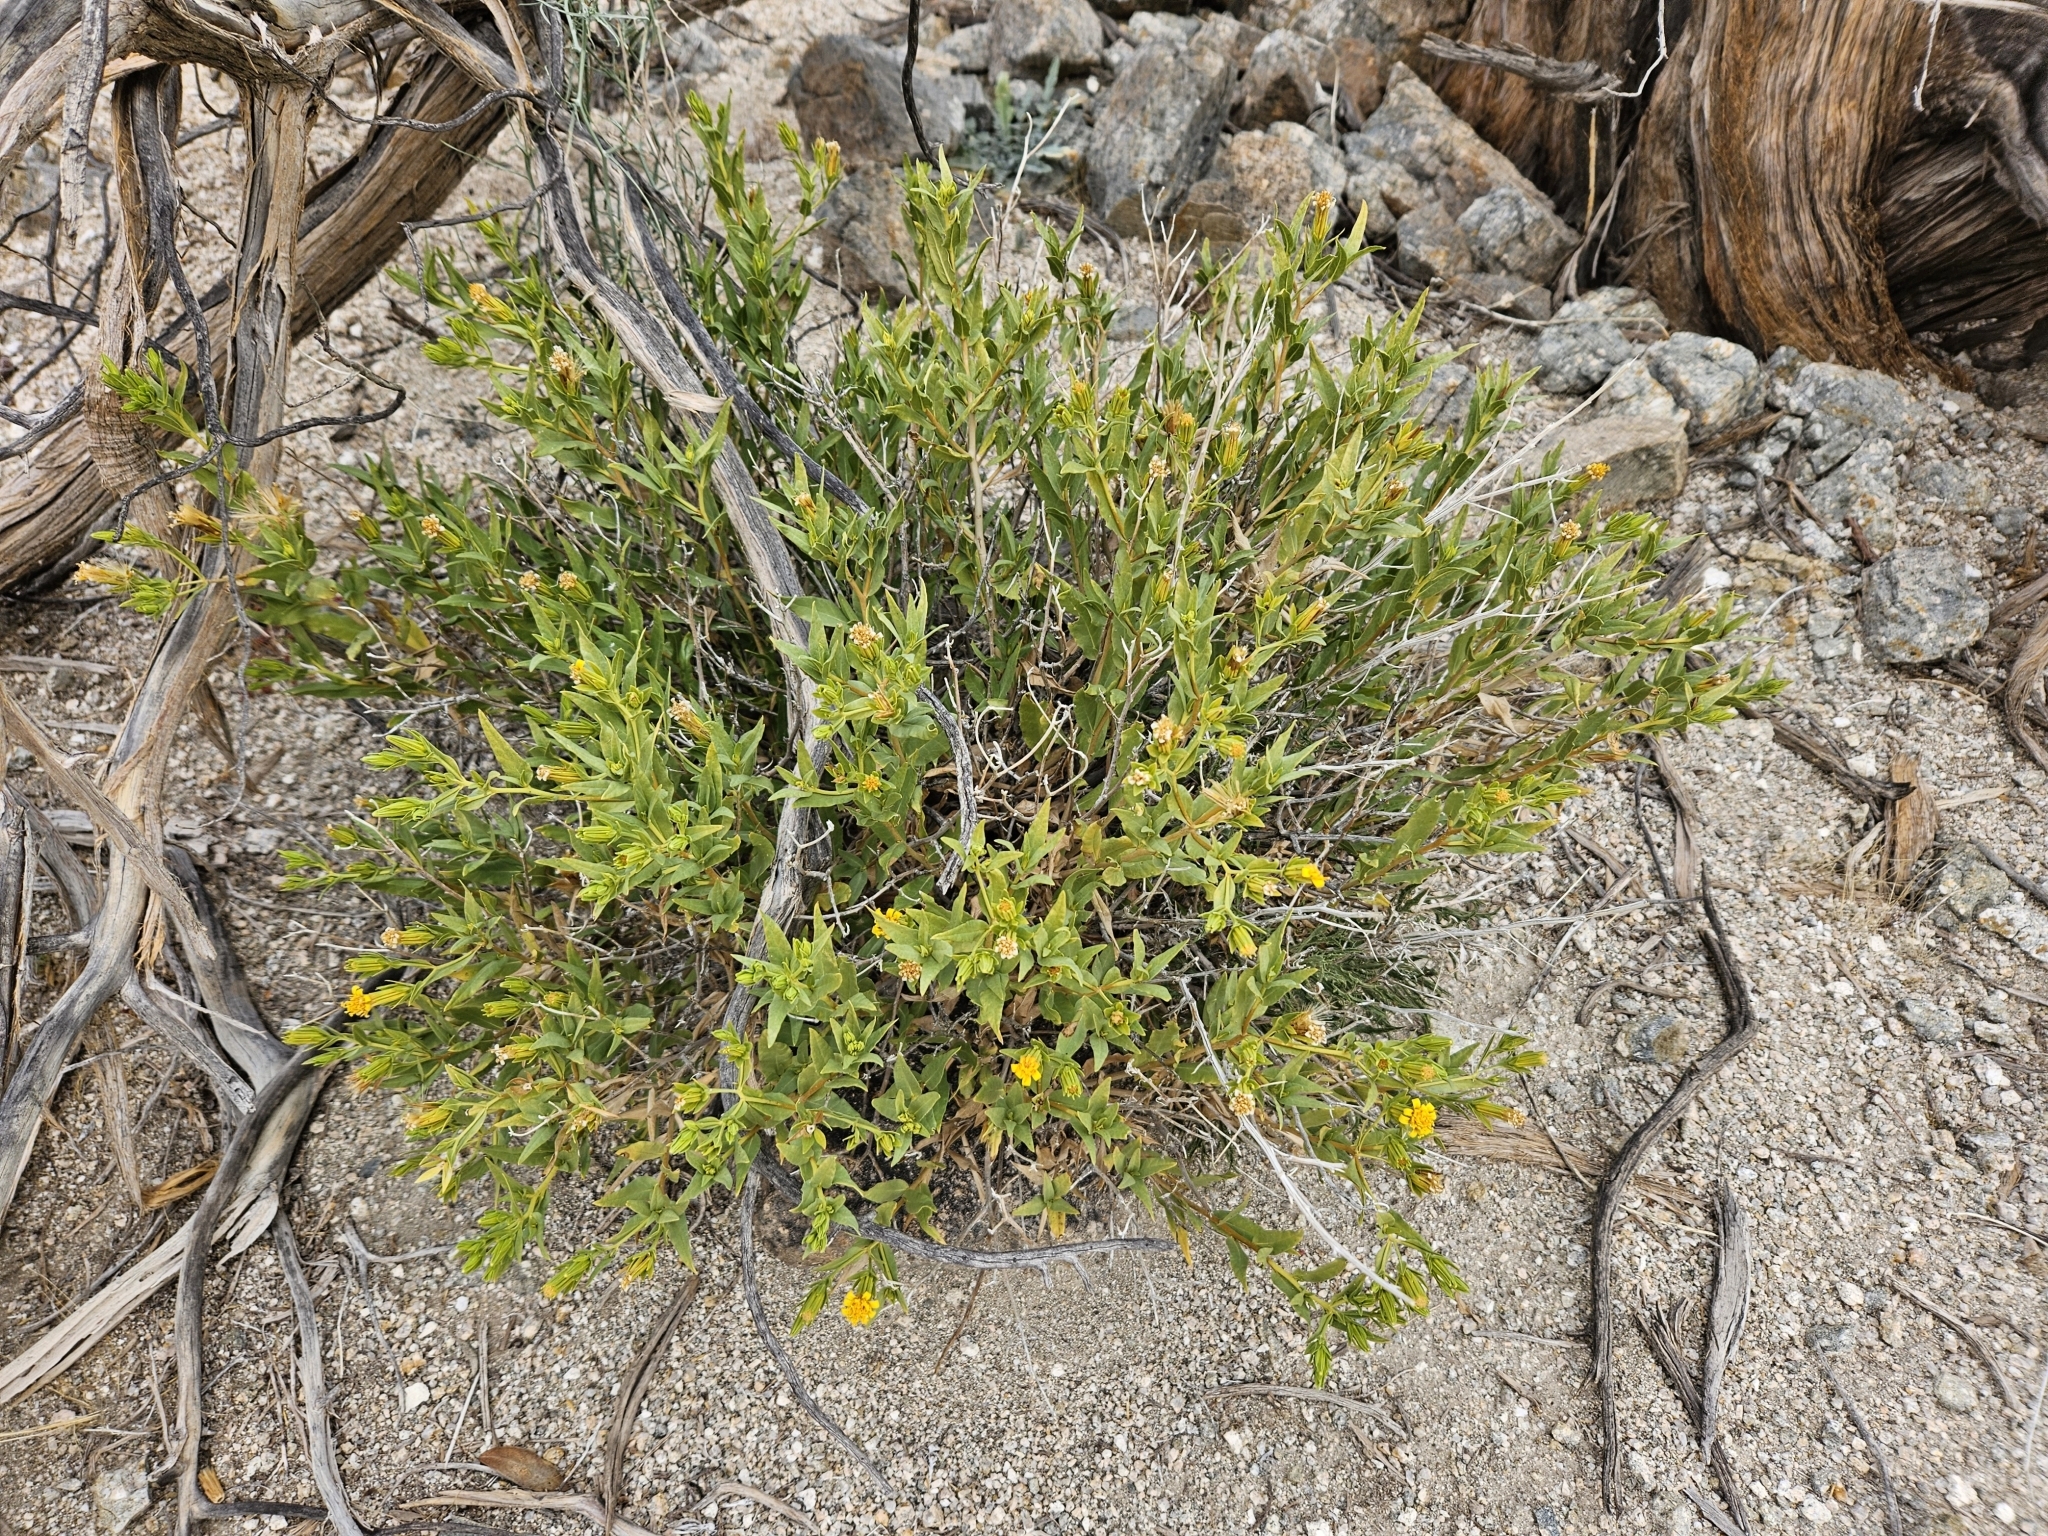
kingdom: Plantae
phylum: Tracheophyta
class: Magnoliopsida
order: Asterales
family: Asteraceae
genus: Trixis
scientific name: Trixis californica
